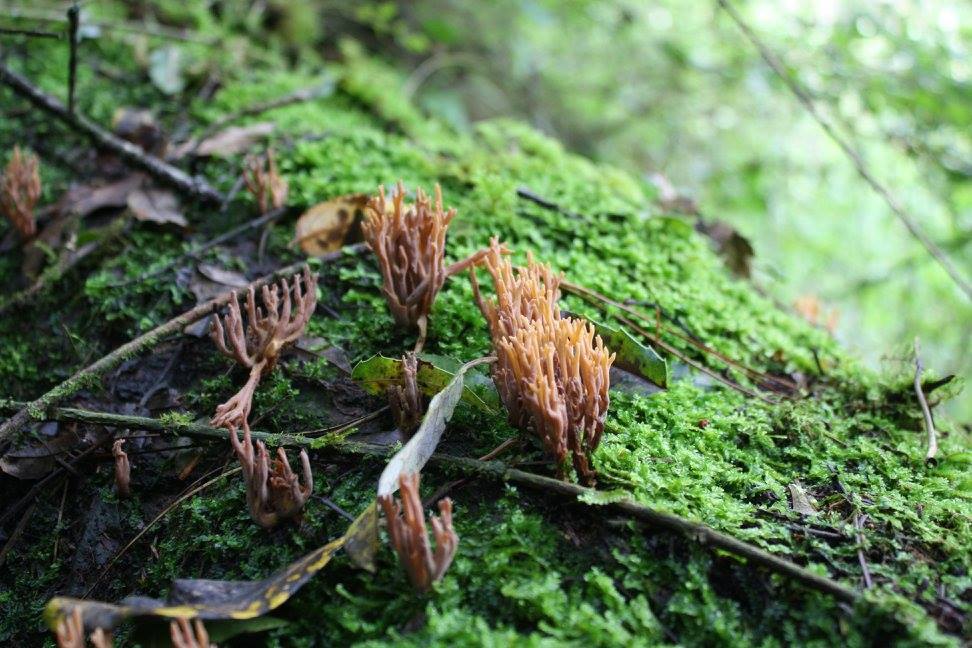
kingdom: Fungi
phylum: Basidiomycota
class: Agaricomycetes
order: Gomphales
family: Gomphaceae
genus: Ramaria
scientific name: Ramaria stricta
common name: Upright coral
